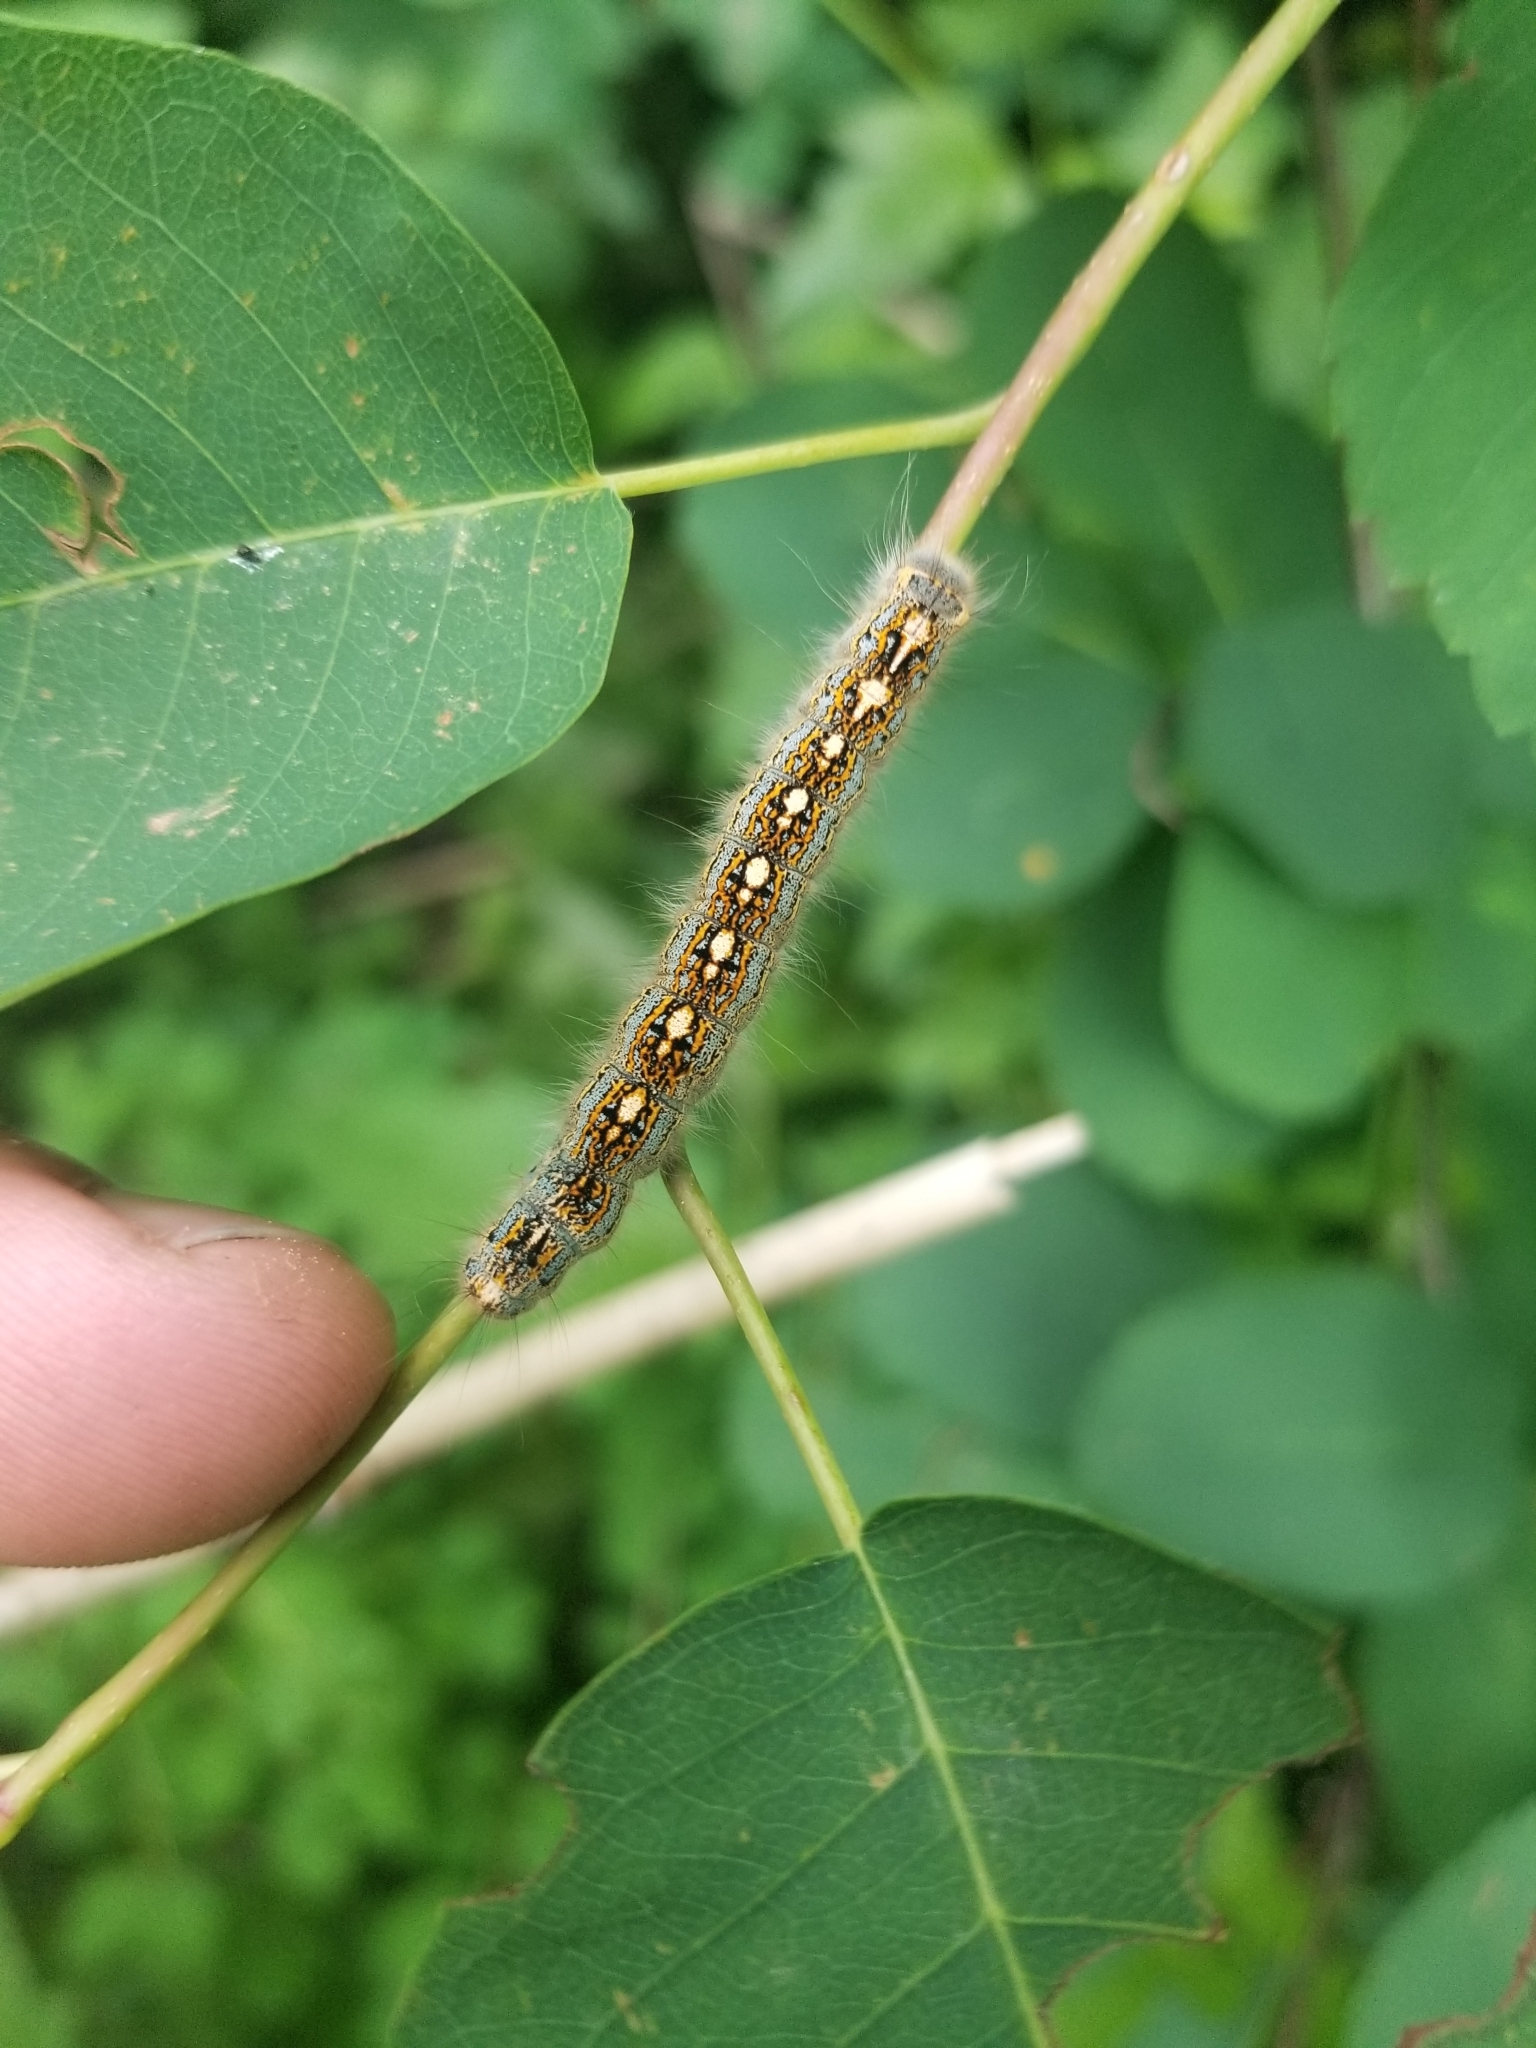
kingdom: Animalia
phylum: Arthropoda
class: Insecta
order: Lepidoptera
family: Lasiocampidae
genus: Malacosoma
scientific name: Malacosoma disstria
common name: Forest tent caterpillar
